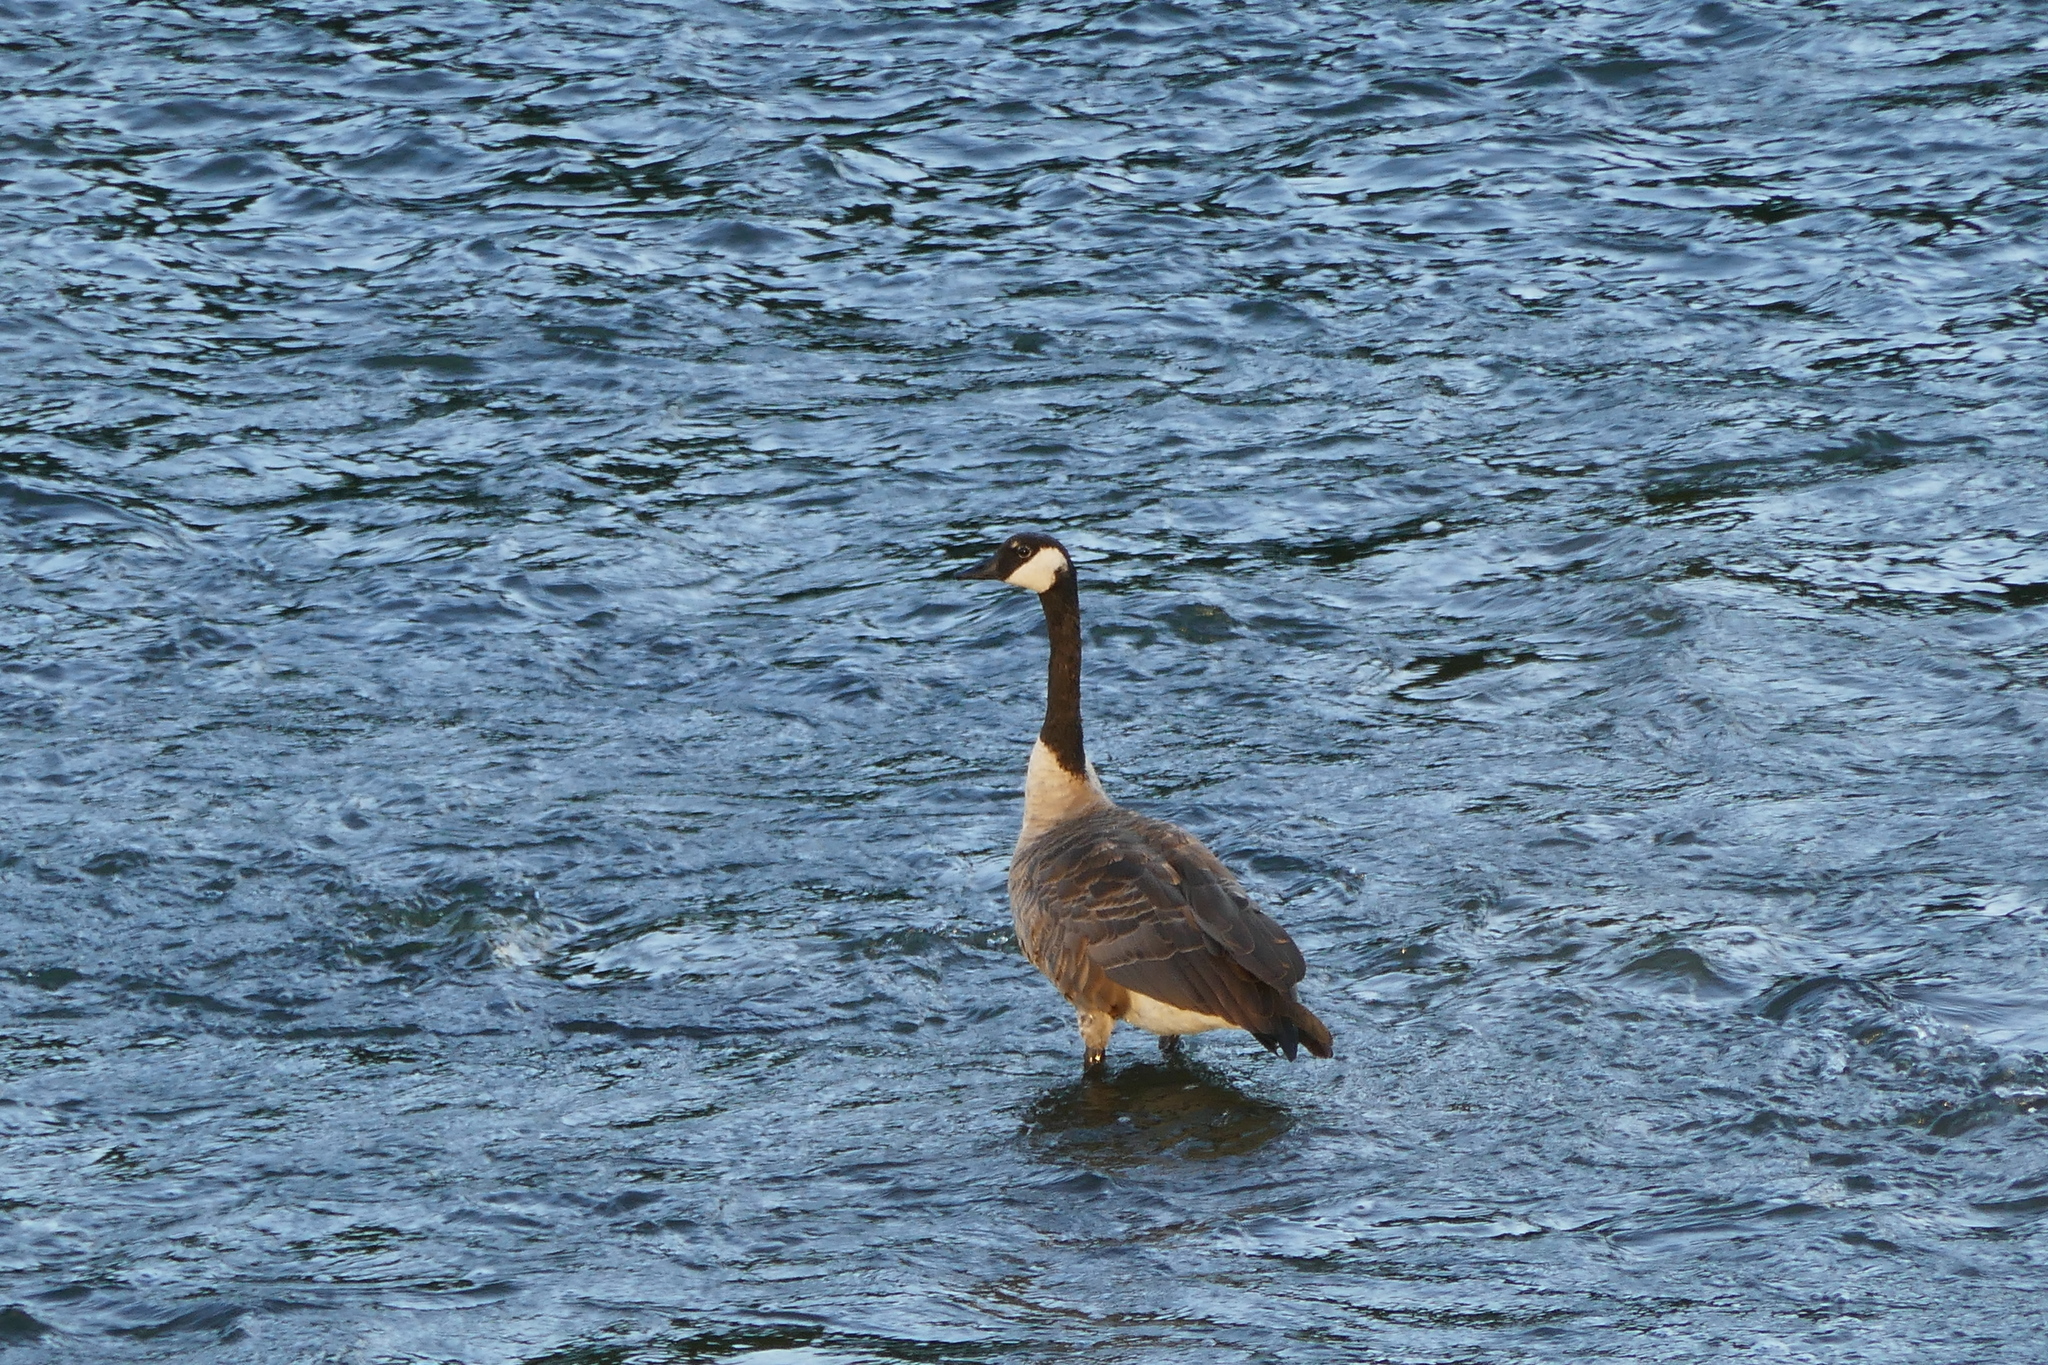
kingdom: Animalia
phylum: Chordata
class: Aves
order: Anseriformes
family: Anatidae
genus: Branta
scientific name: Branta canadensis
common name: Canada goose
